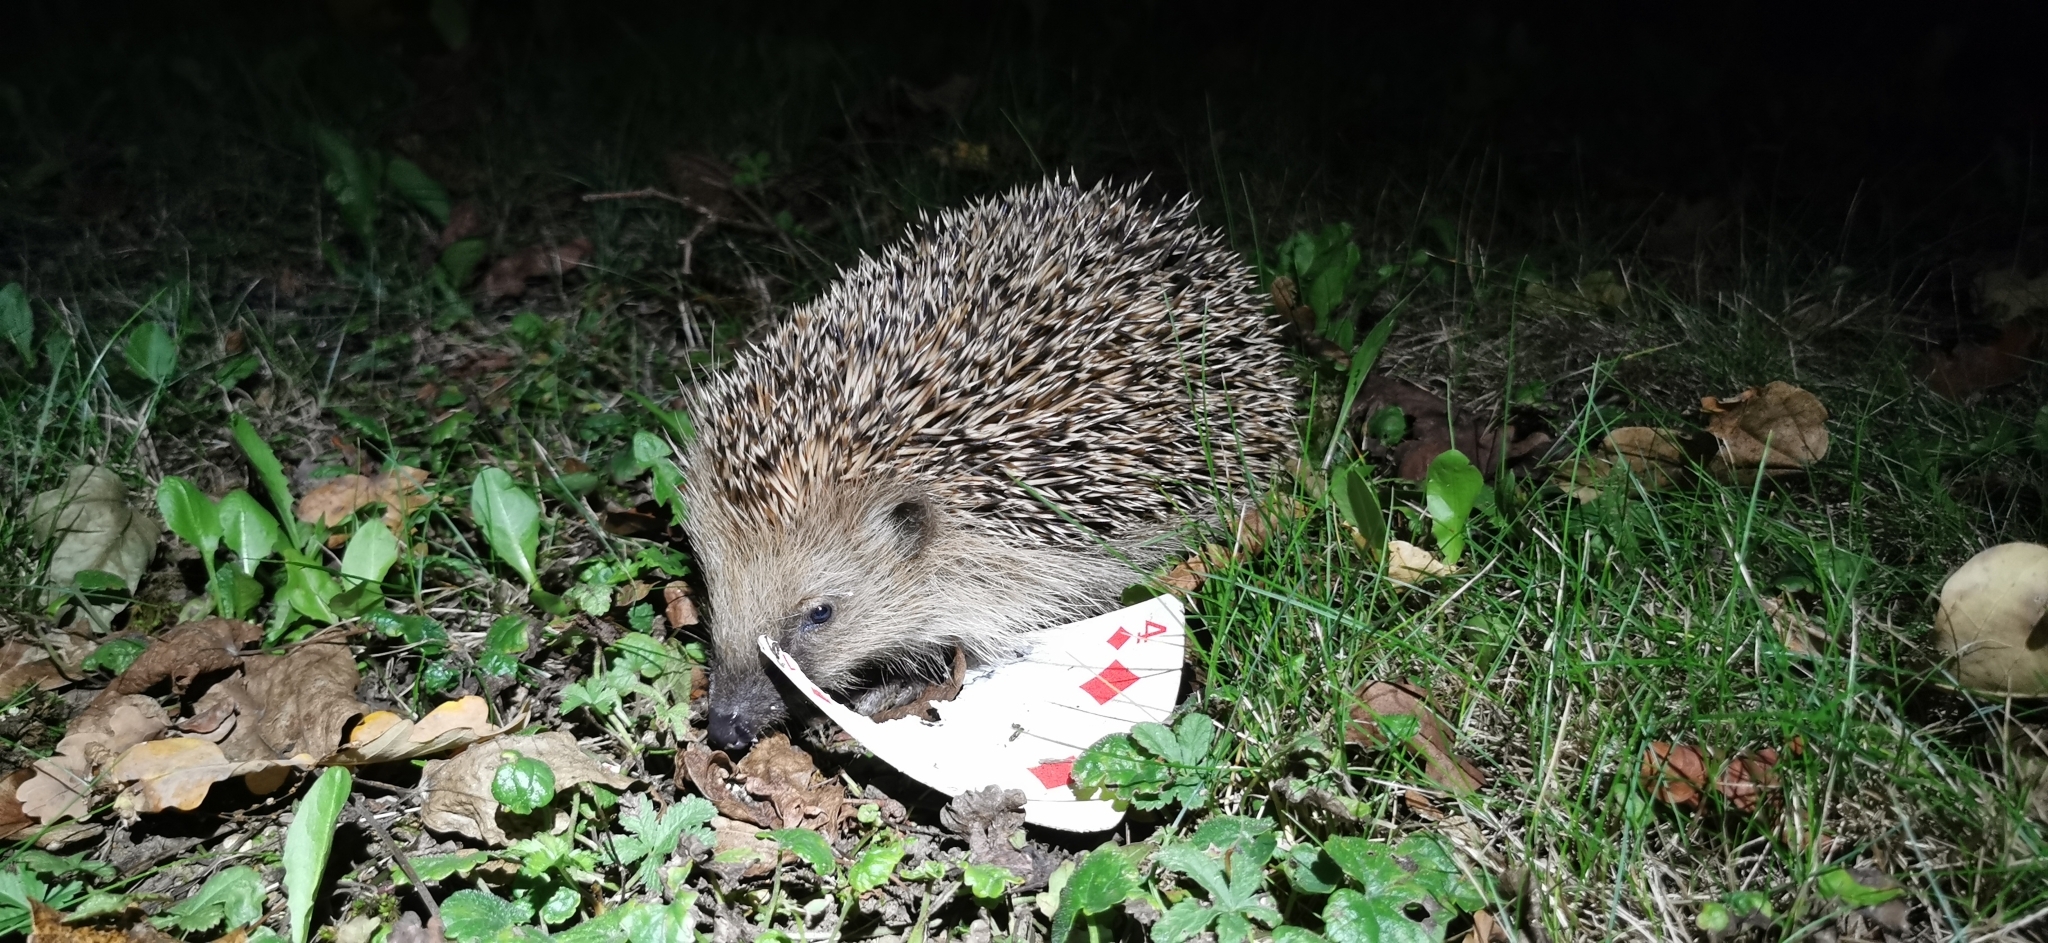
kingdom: Animalia
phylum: Chordata
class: Mammalia
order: Erinaceomorpha
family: Erinaceidae
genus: Erinaceus
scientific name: Erinaceus europaeus
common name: West european hedgehog
